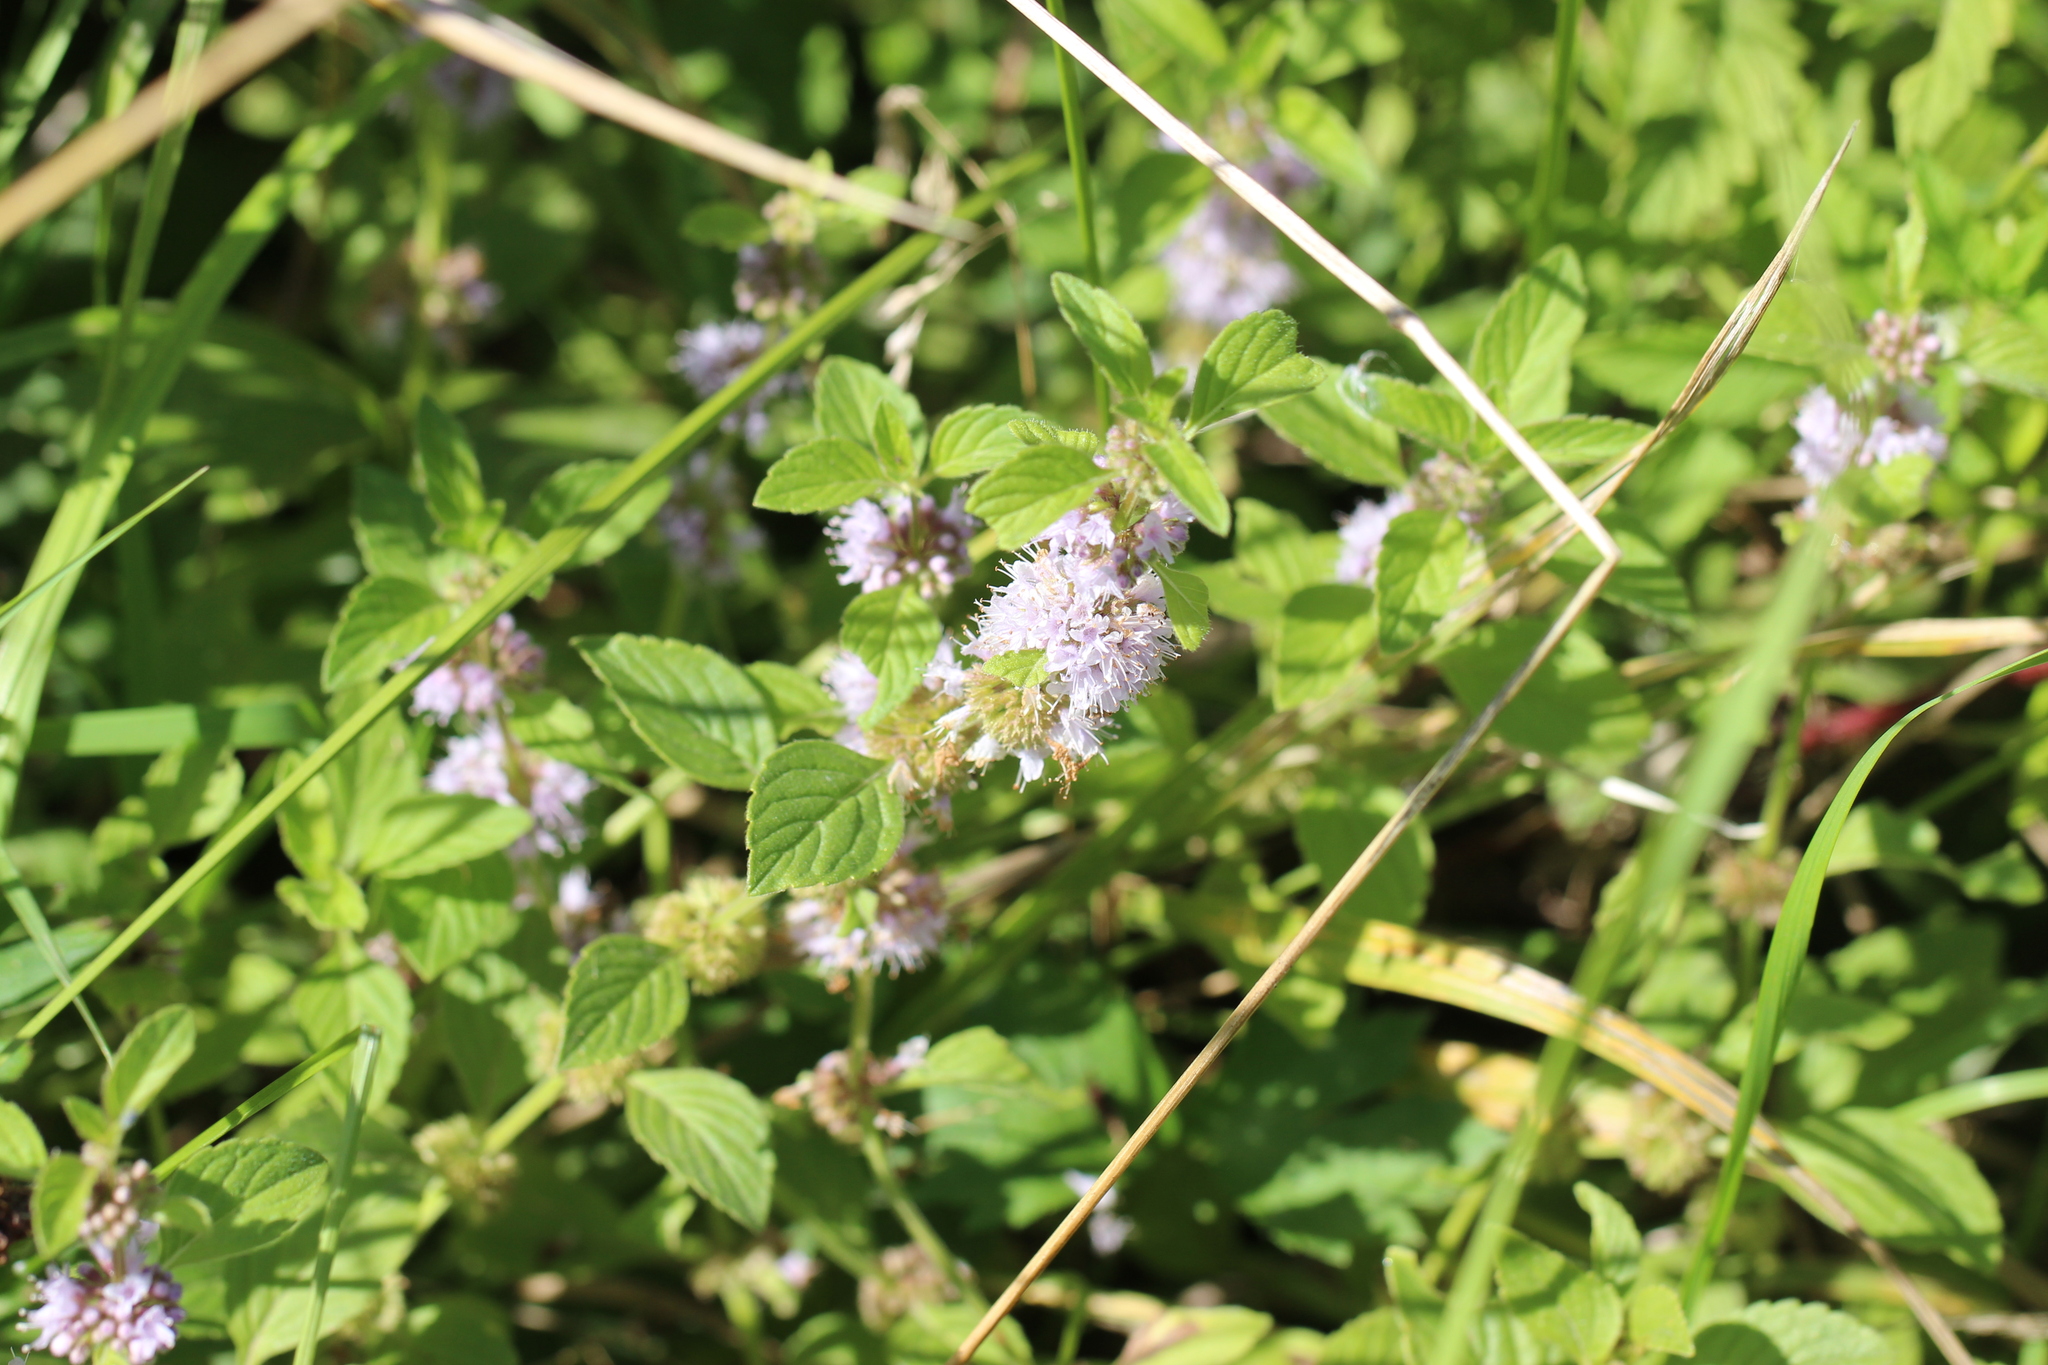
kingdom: Plantae
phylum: Tracheophyta
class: Magnoliopsida
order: Lamiales
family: Lamiaceae
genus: Mentha
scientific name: Mentha arvensis
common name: Corn mint
